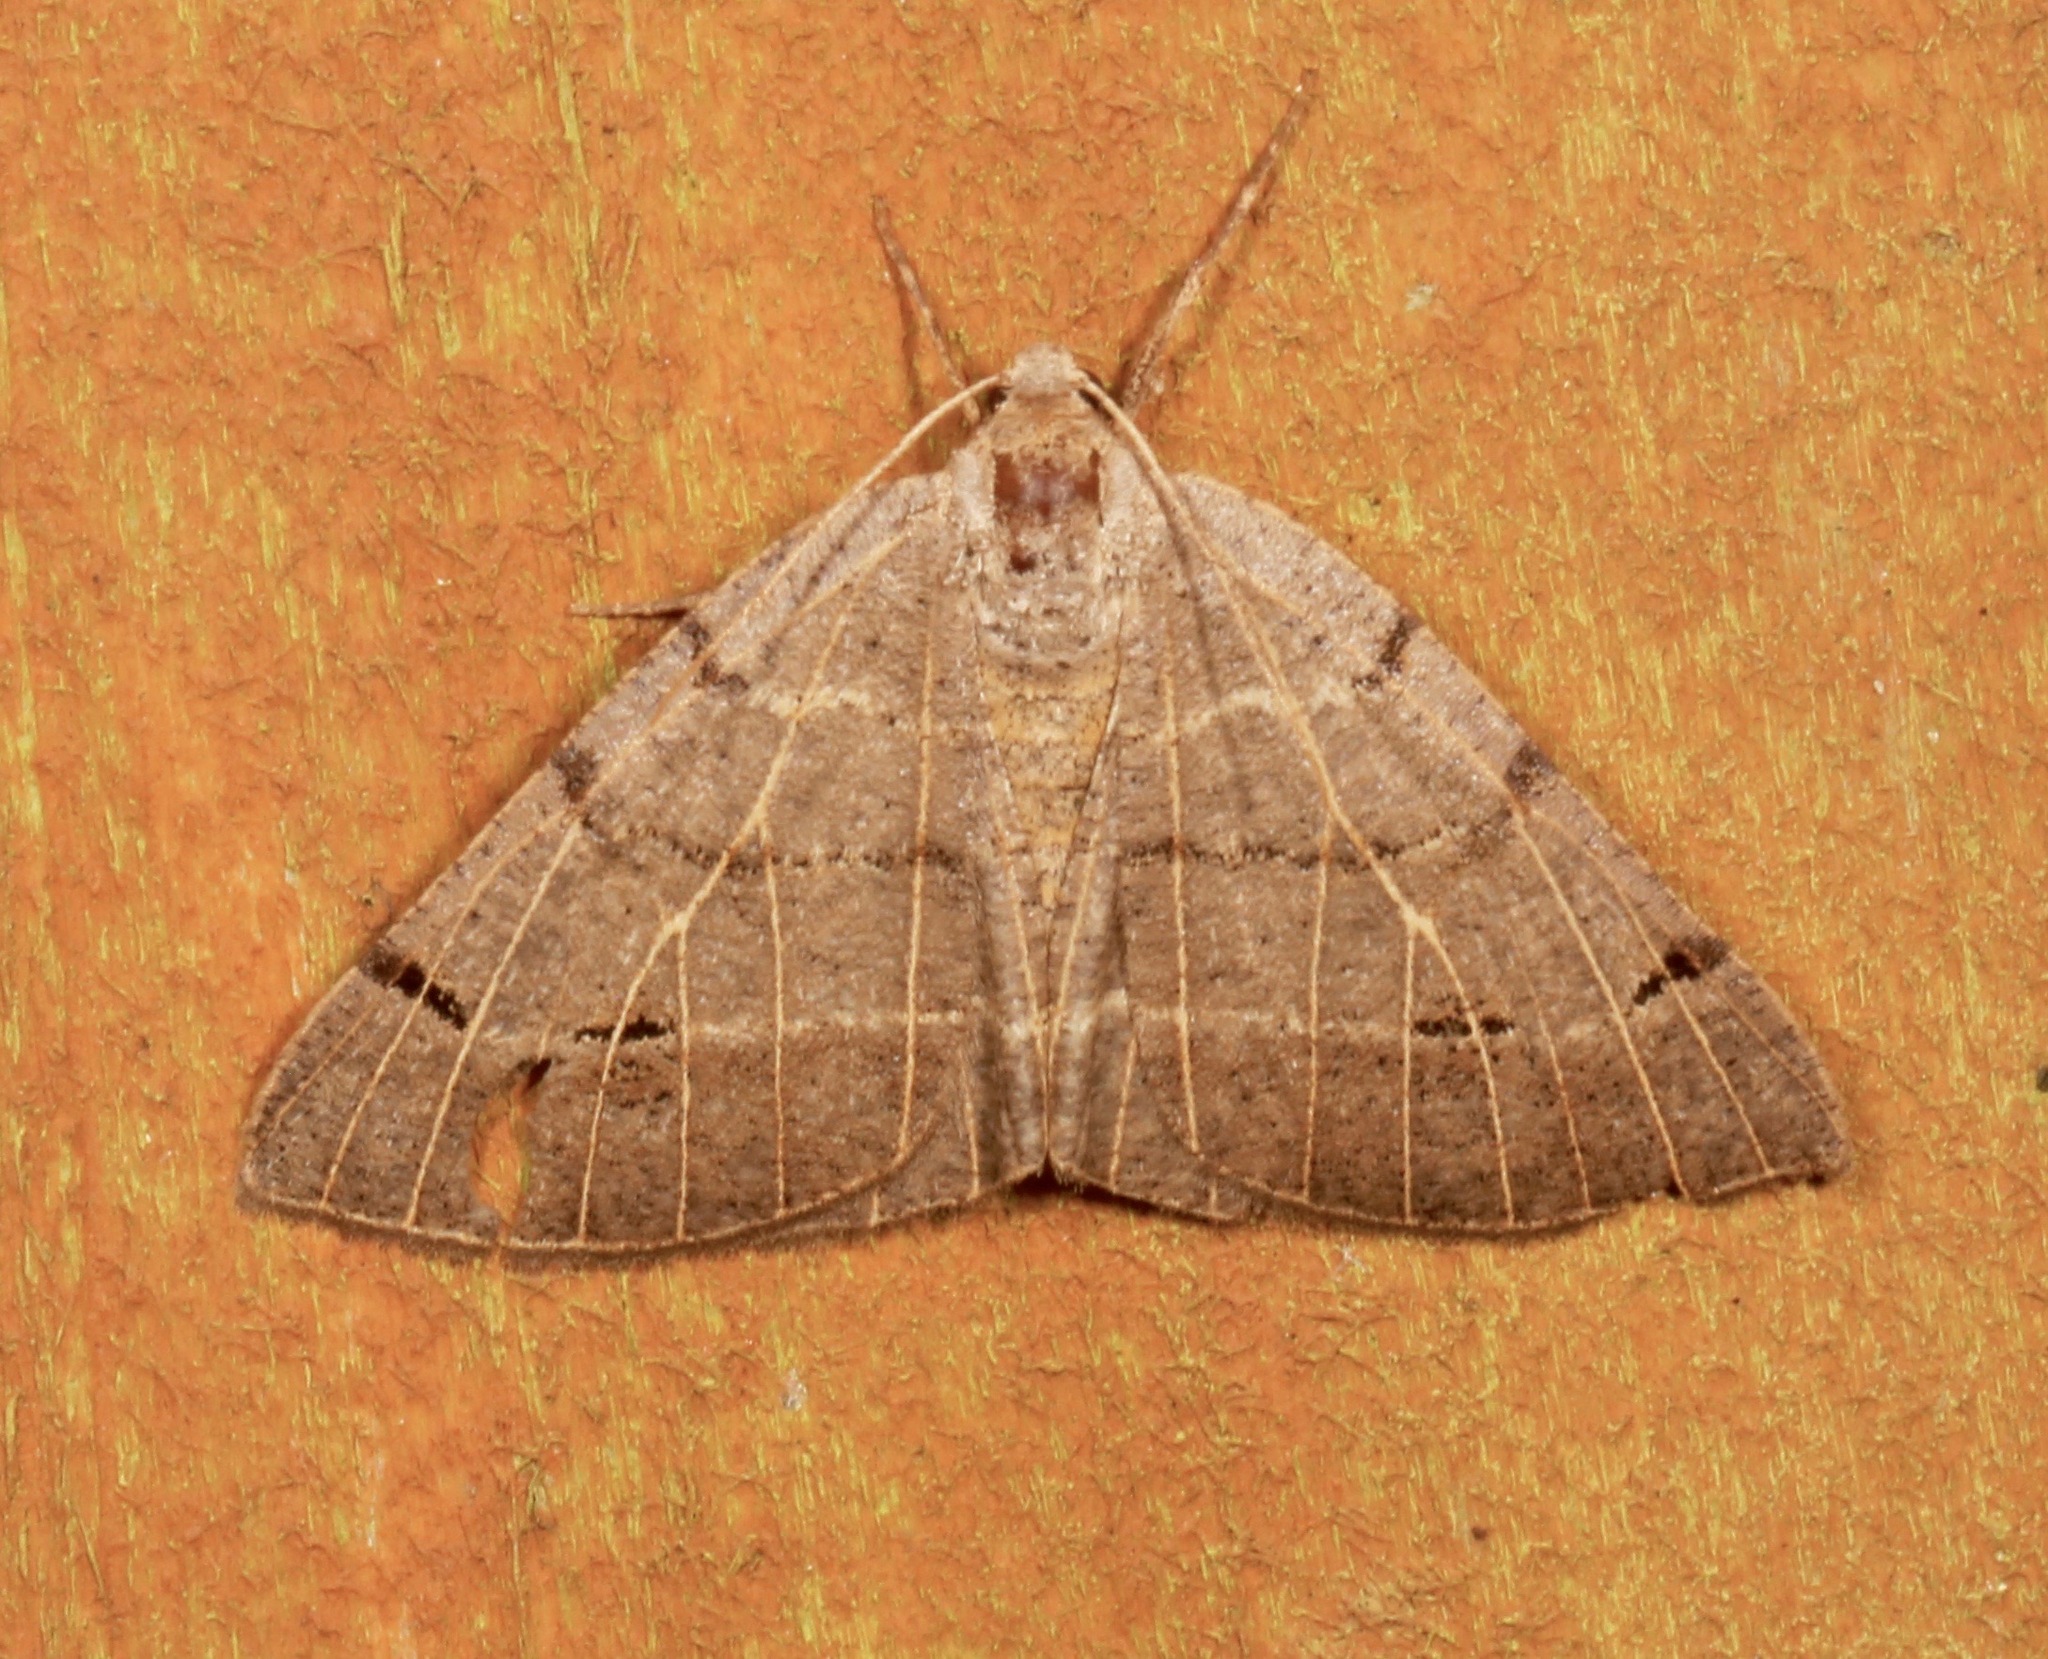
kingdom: Animalia
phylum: Arthropoda
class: Insecta
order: Lepidoptera
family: Geometridae
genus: Isturgia
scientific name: Isturgia dislocaria
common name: Pale-viened enconista
